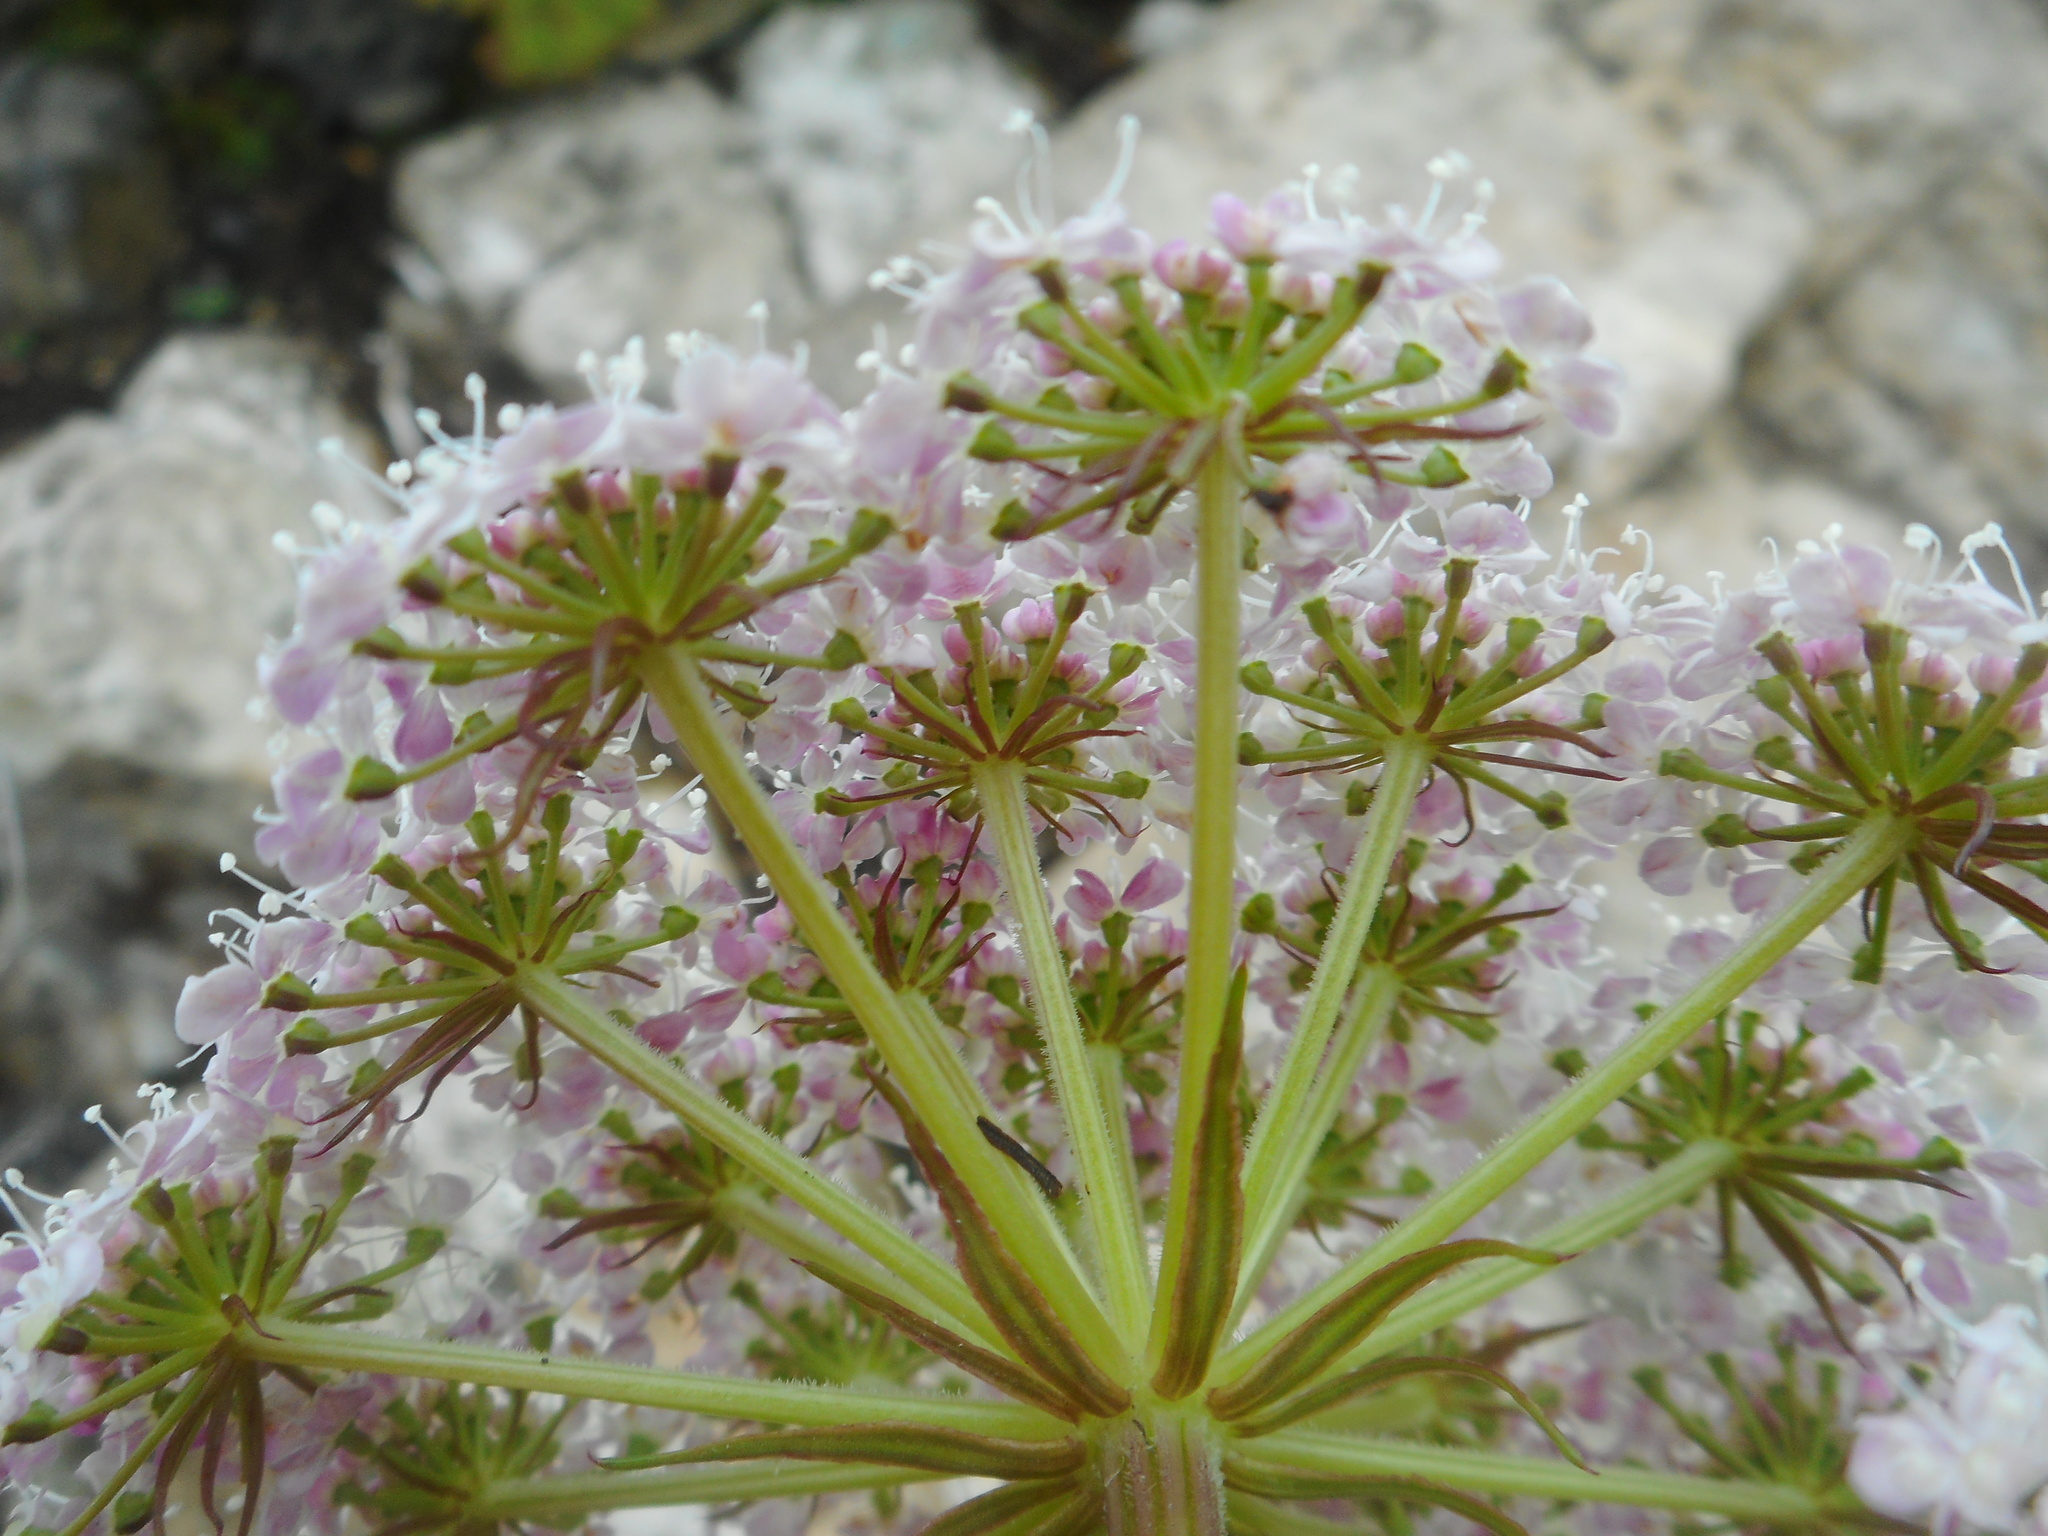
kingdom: Plantae
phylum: Tracheophyta
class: Magnoliopsida
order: Apiales
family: Apiaceae
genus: Kitagawia
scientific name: Kitagawia komarovii
